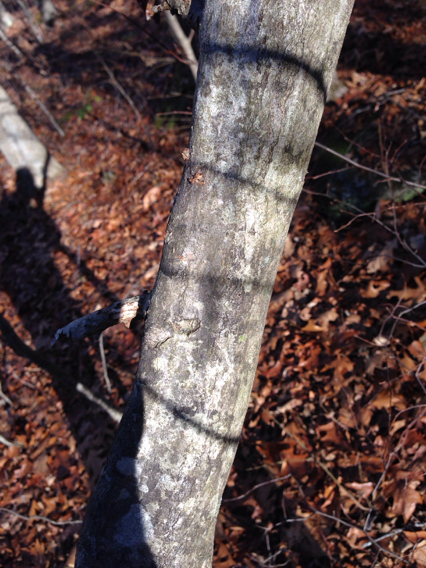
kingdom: Plantae
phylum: Tracheophyta
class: Magnoliopsida
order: Fagales
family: Betulaceae
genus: Carpinus
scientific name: Carpinus caroliniana
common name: American hornbeam
